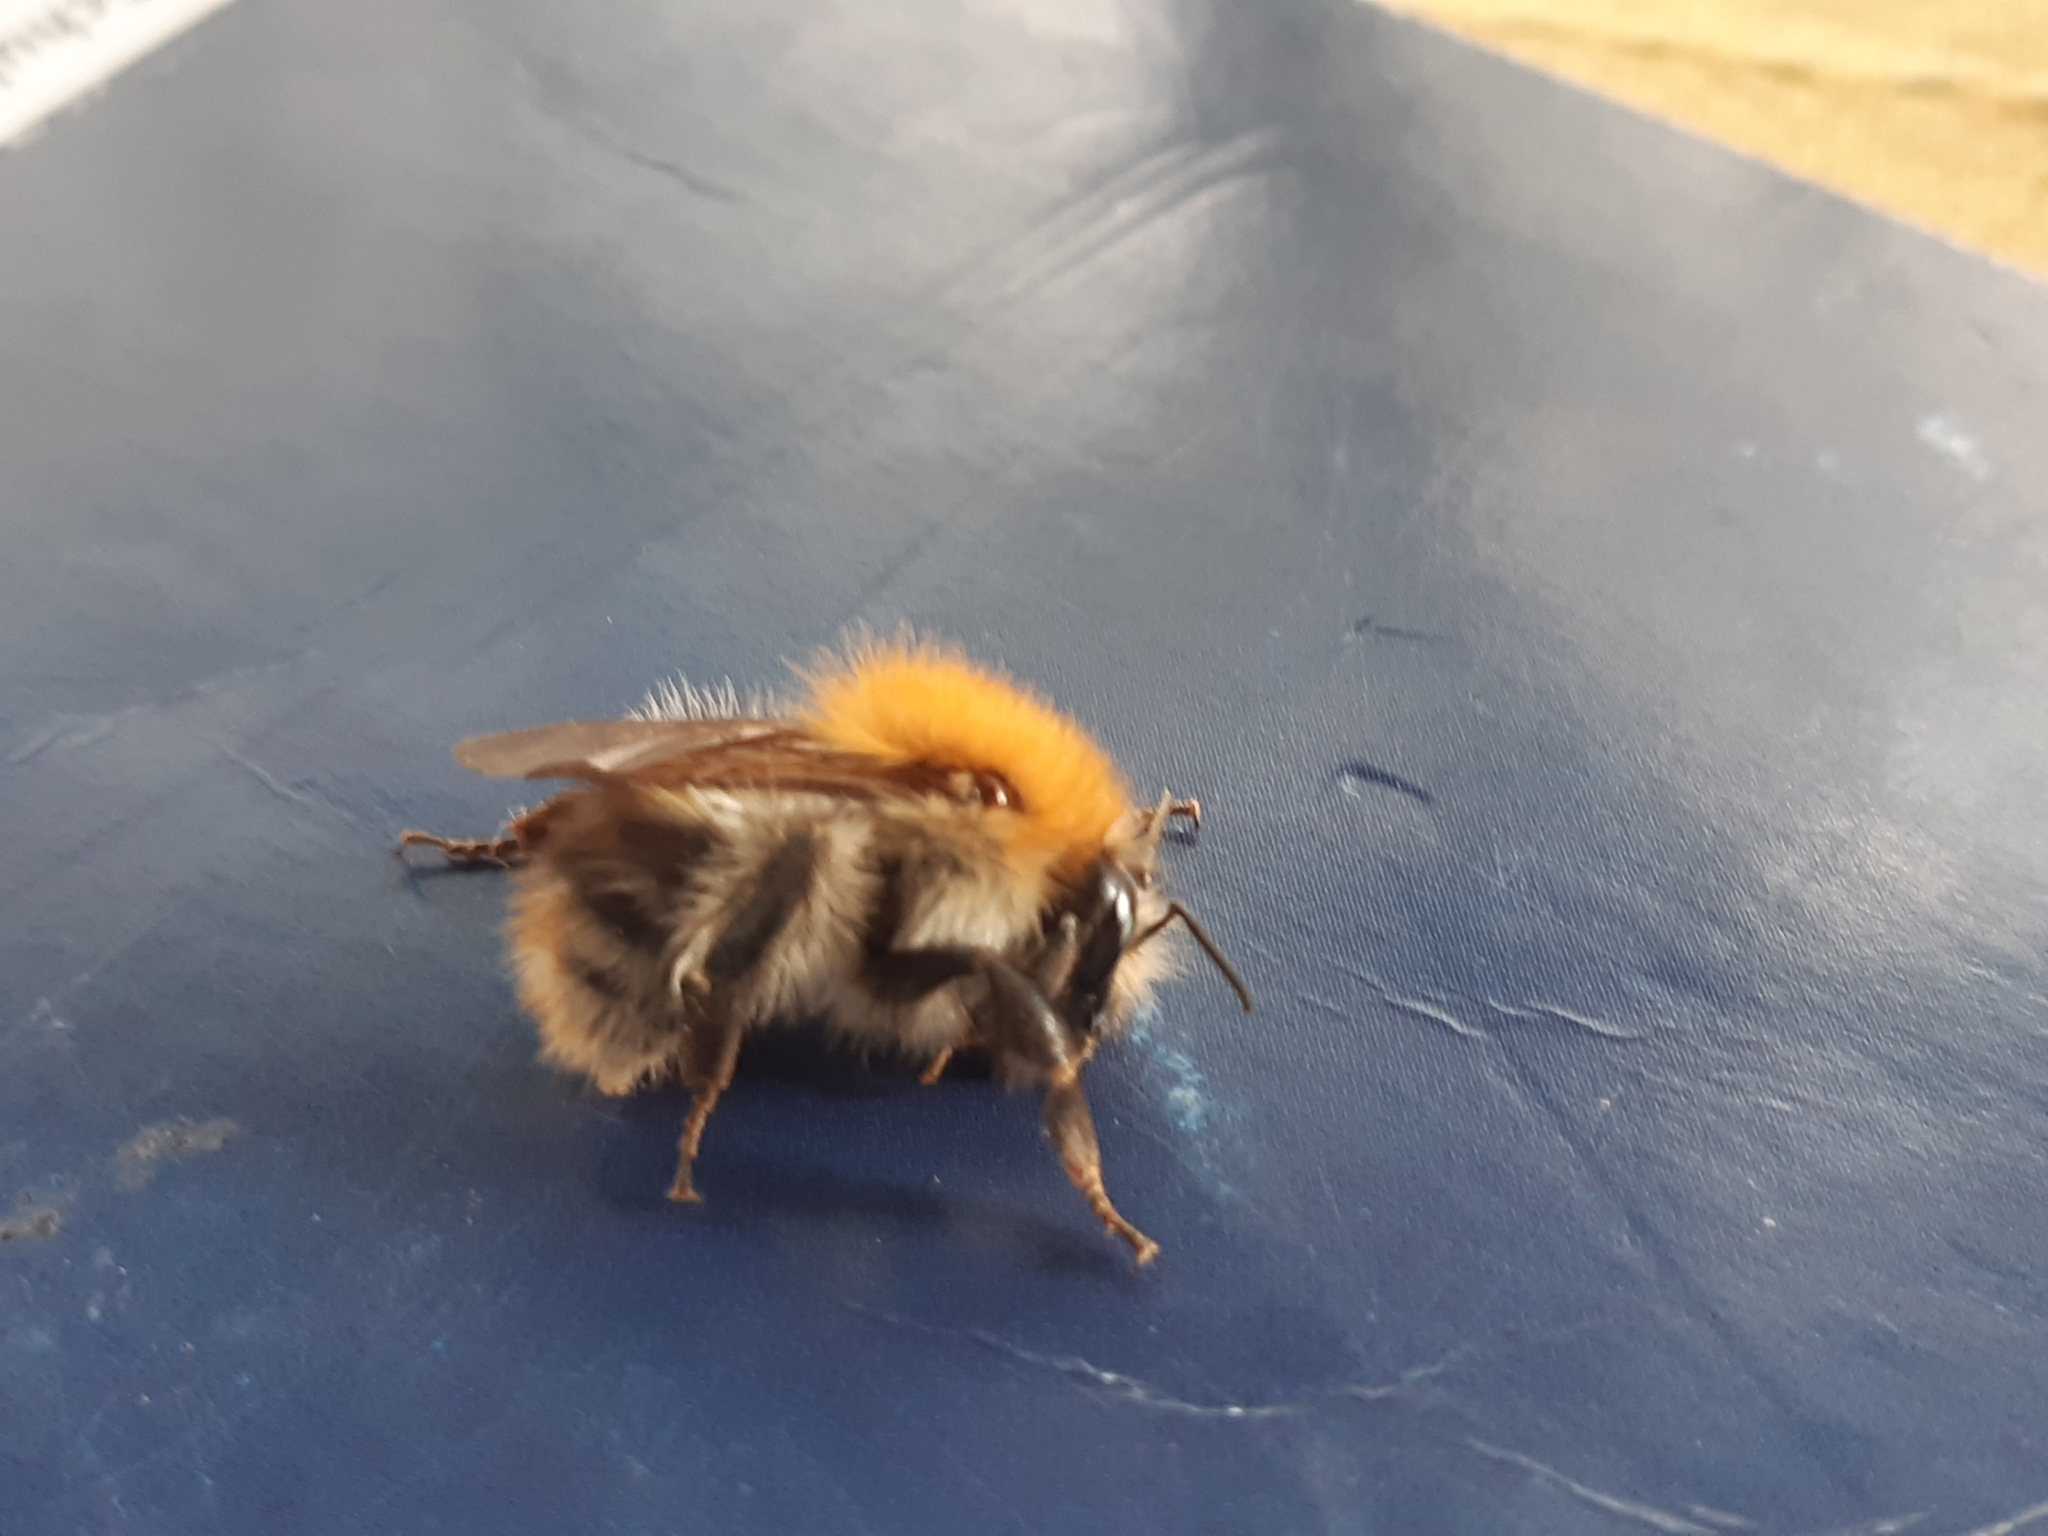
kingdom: Animalia
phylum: Arthropoda
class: Insecta
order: Hymenoptera
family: Apidae
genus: Bombus
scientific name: Bombus pascuorum
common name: Common carder bee
